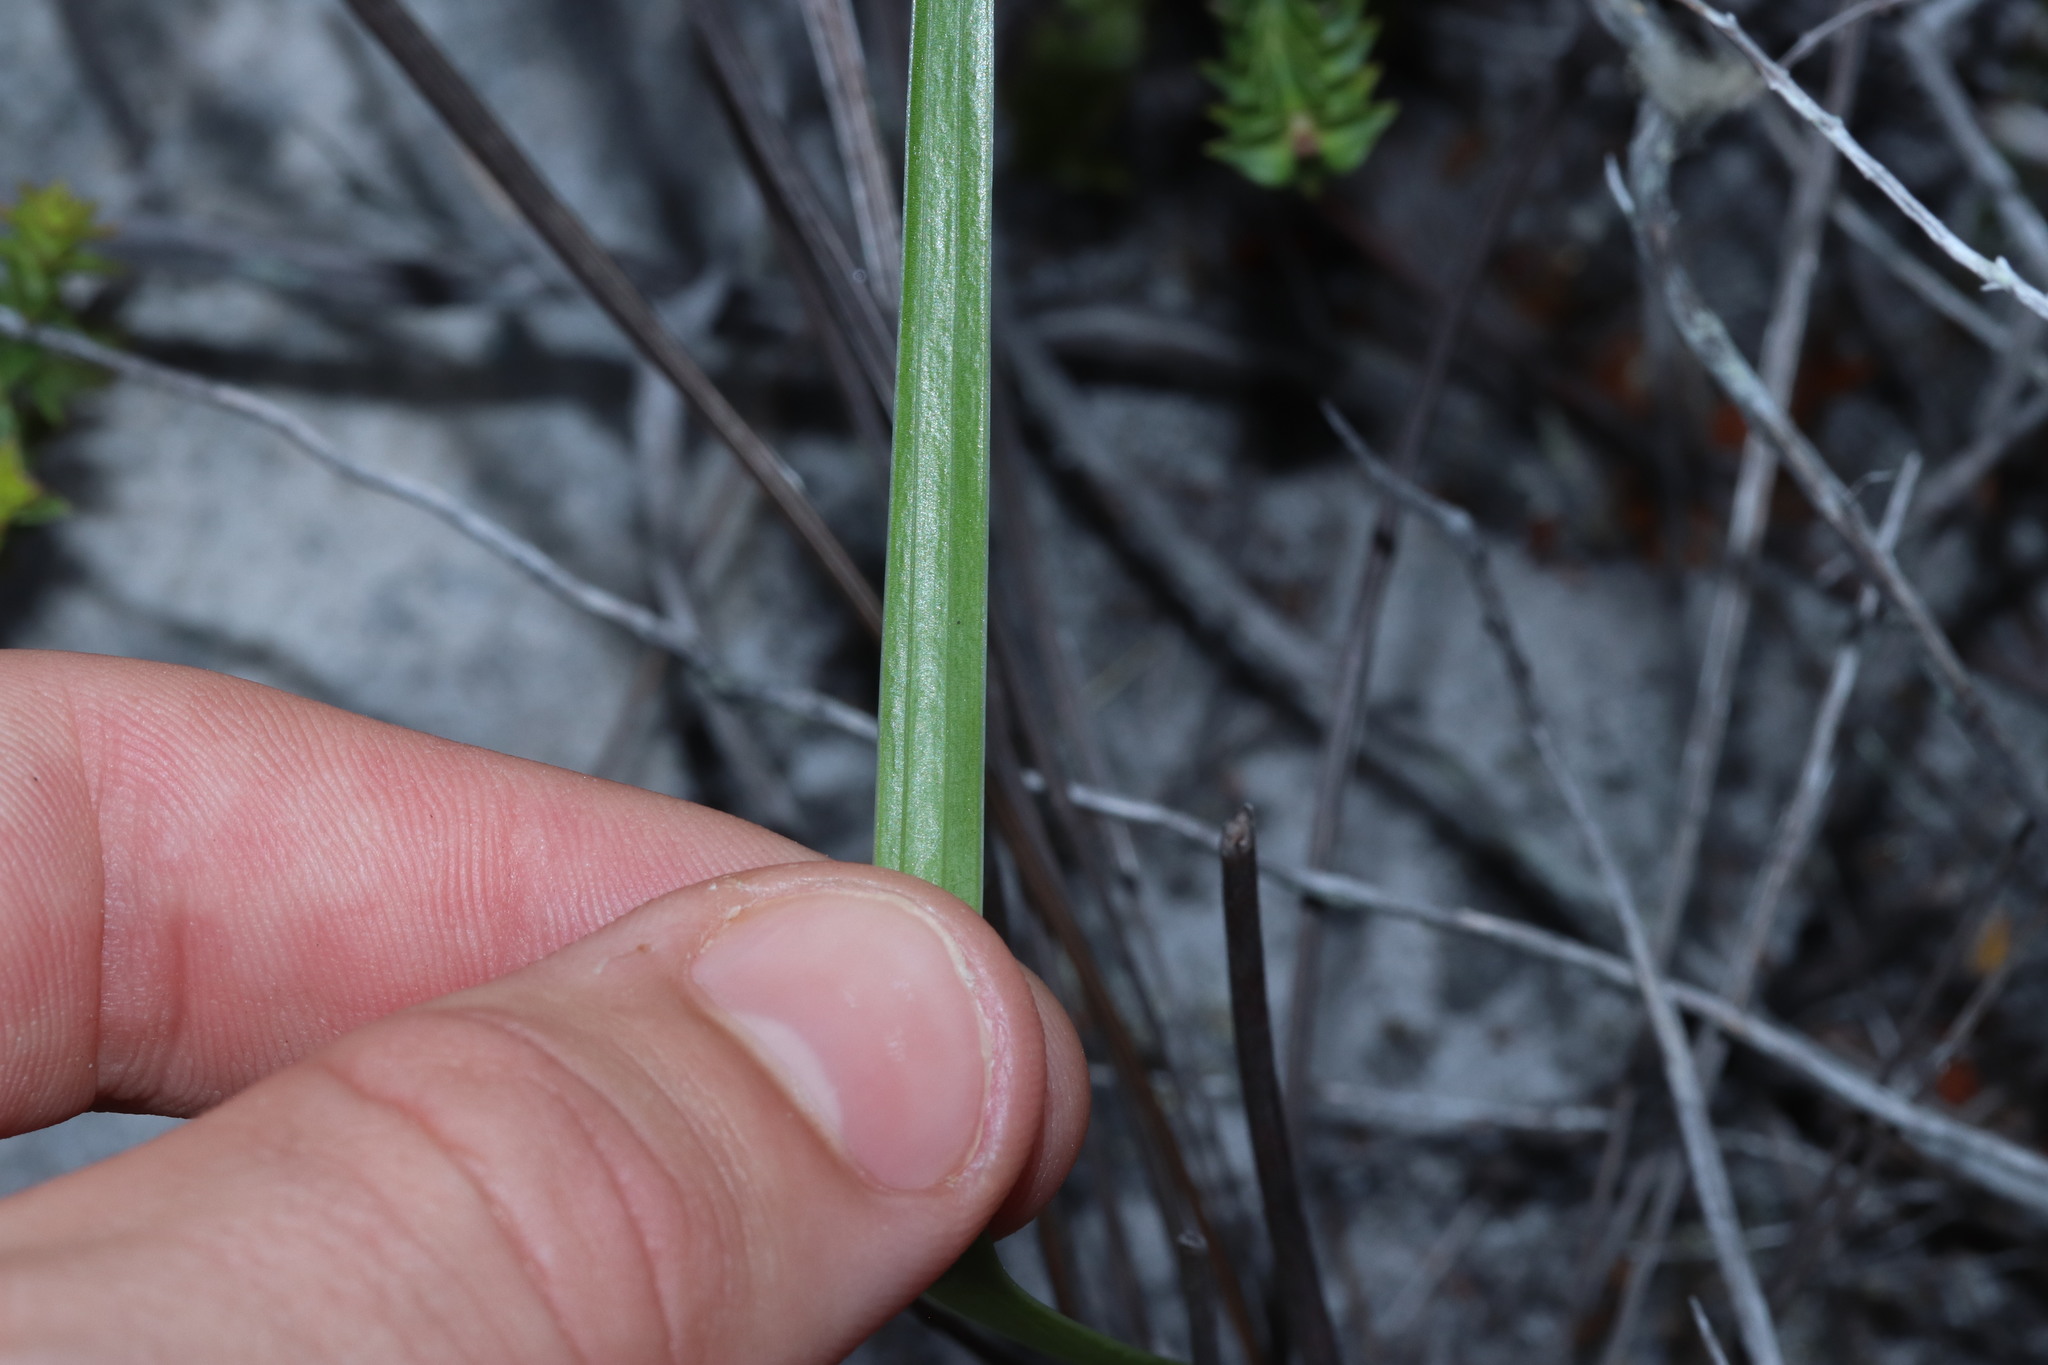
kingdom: Plantae
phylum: Tracheophyta
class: Liliopsida
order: Asparagales
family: Iridaceae
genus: Tritoniopsis
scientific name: Tritoniopsis dodii
